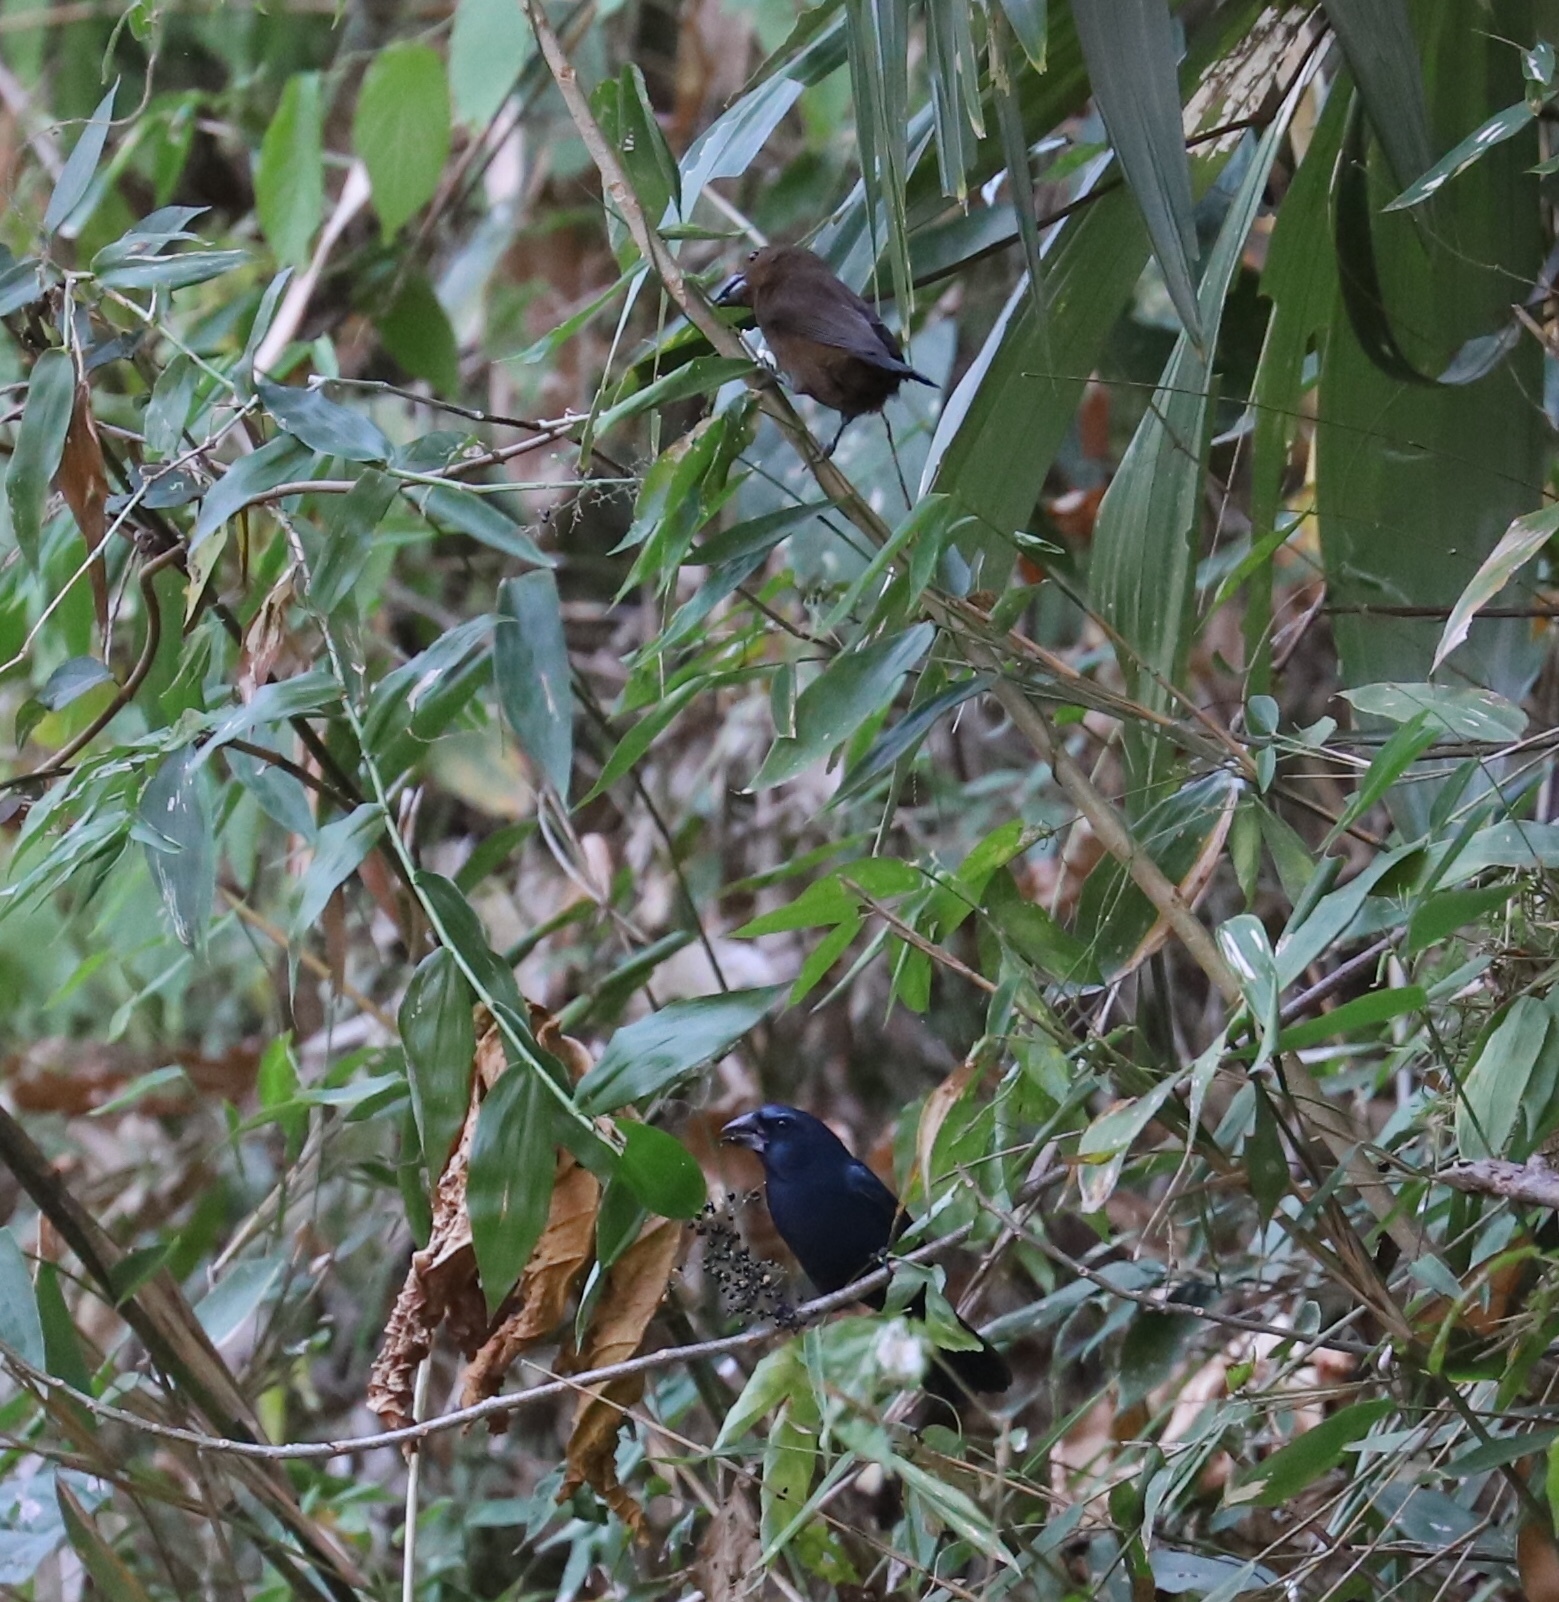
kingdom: Animalia
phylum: Chordata
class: Aves
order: Passeriformes
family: Cardinalidae
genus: Cyanocompsa
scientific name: Cyanocompsa cyanoides
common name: Blue-black grosbeak
